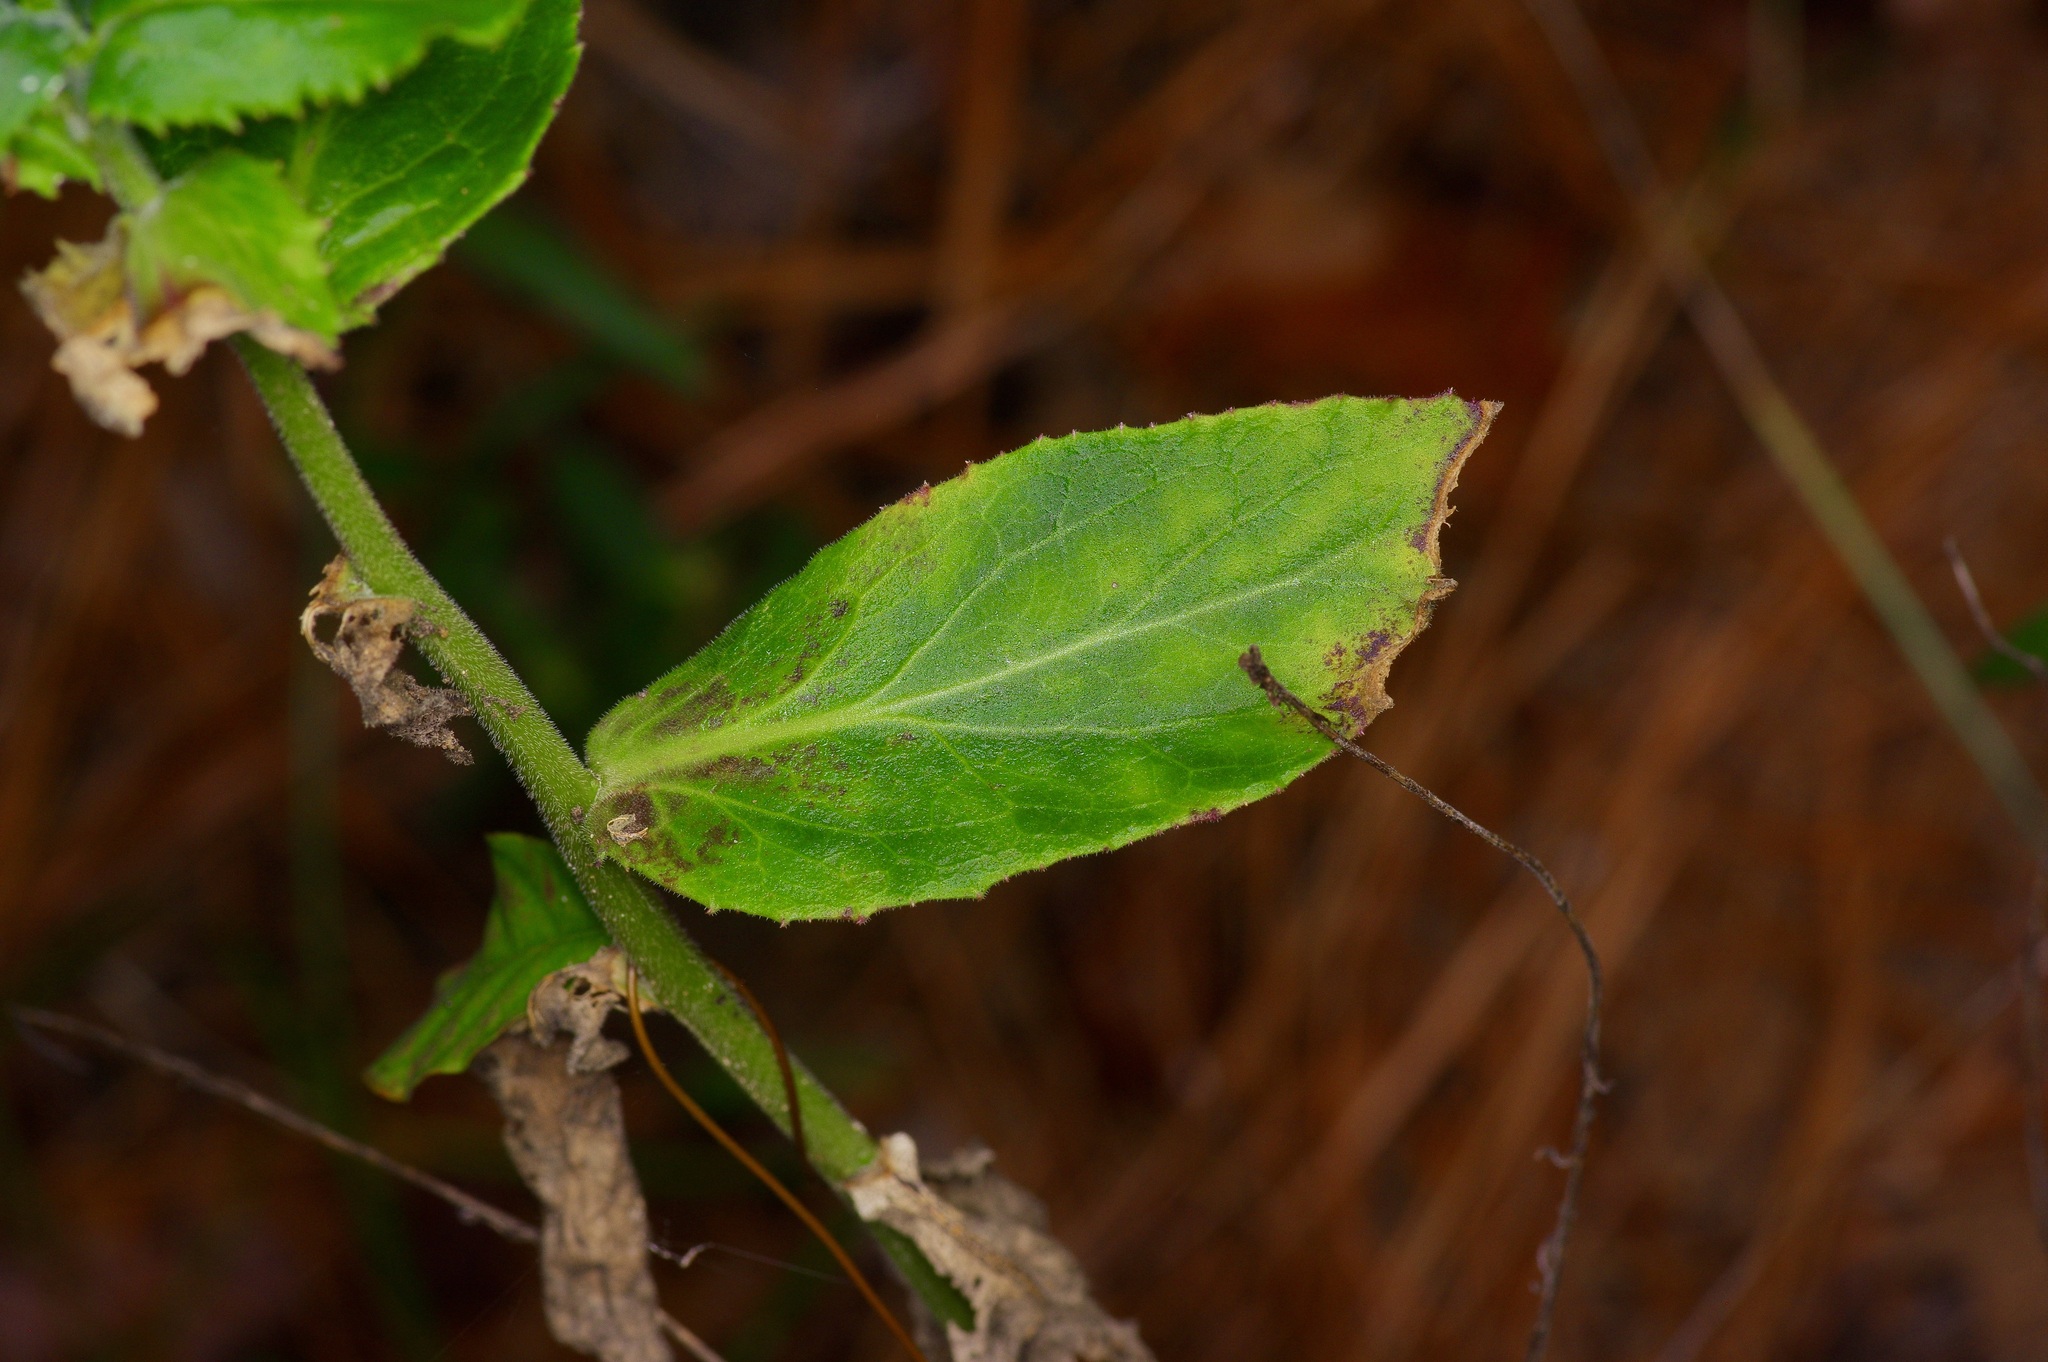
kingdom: Plantae
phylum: Tracheophyta
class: Magnoliopsida
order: Asterales
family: Campanulaceae
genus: Lobelia
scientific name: Lobelia puberula
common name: Purple dewdrop
